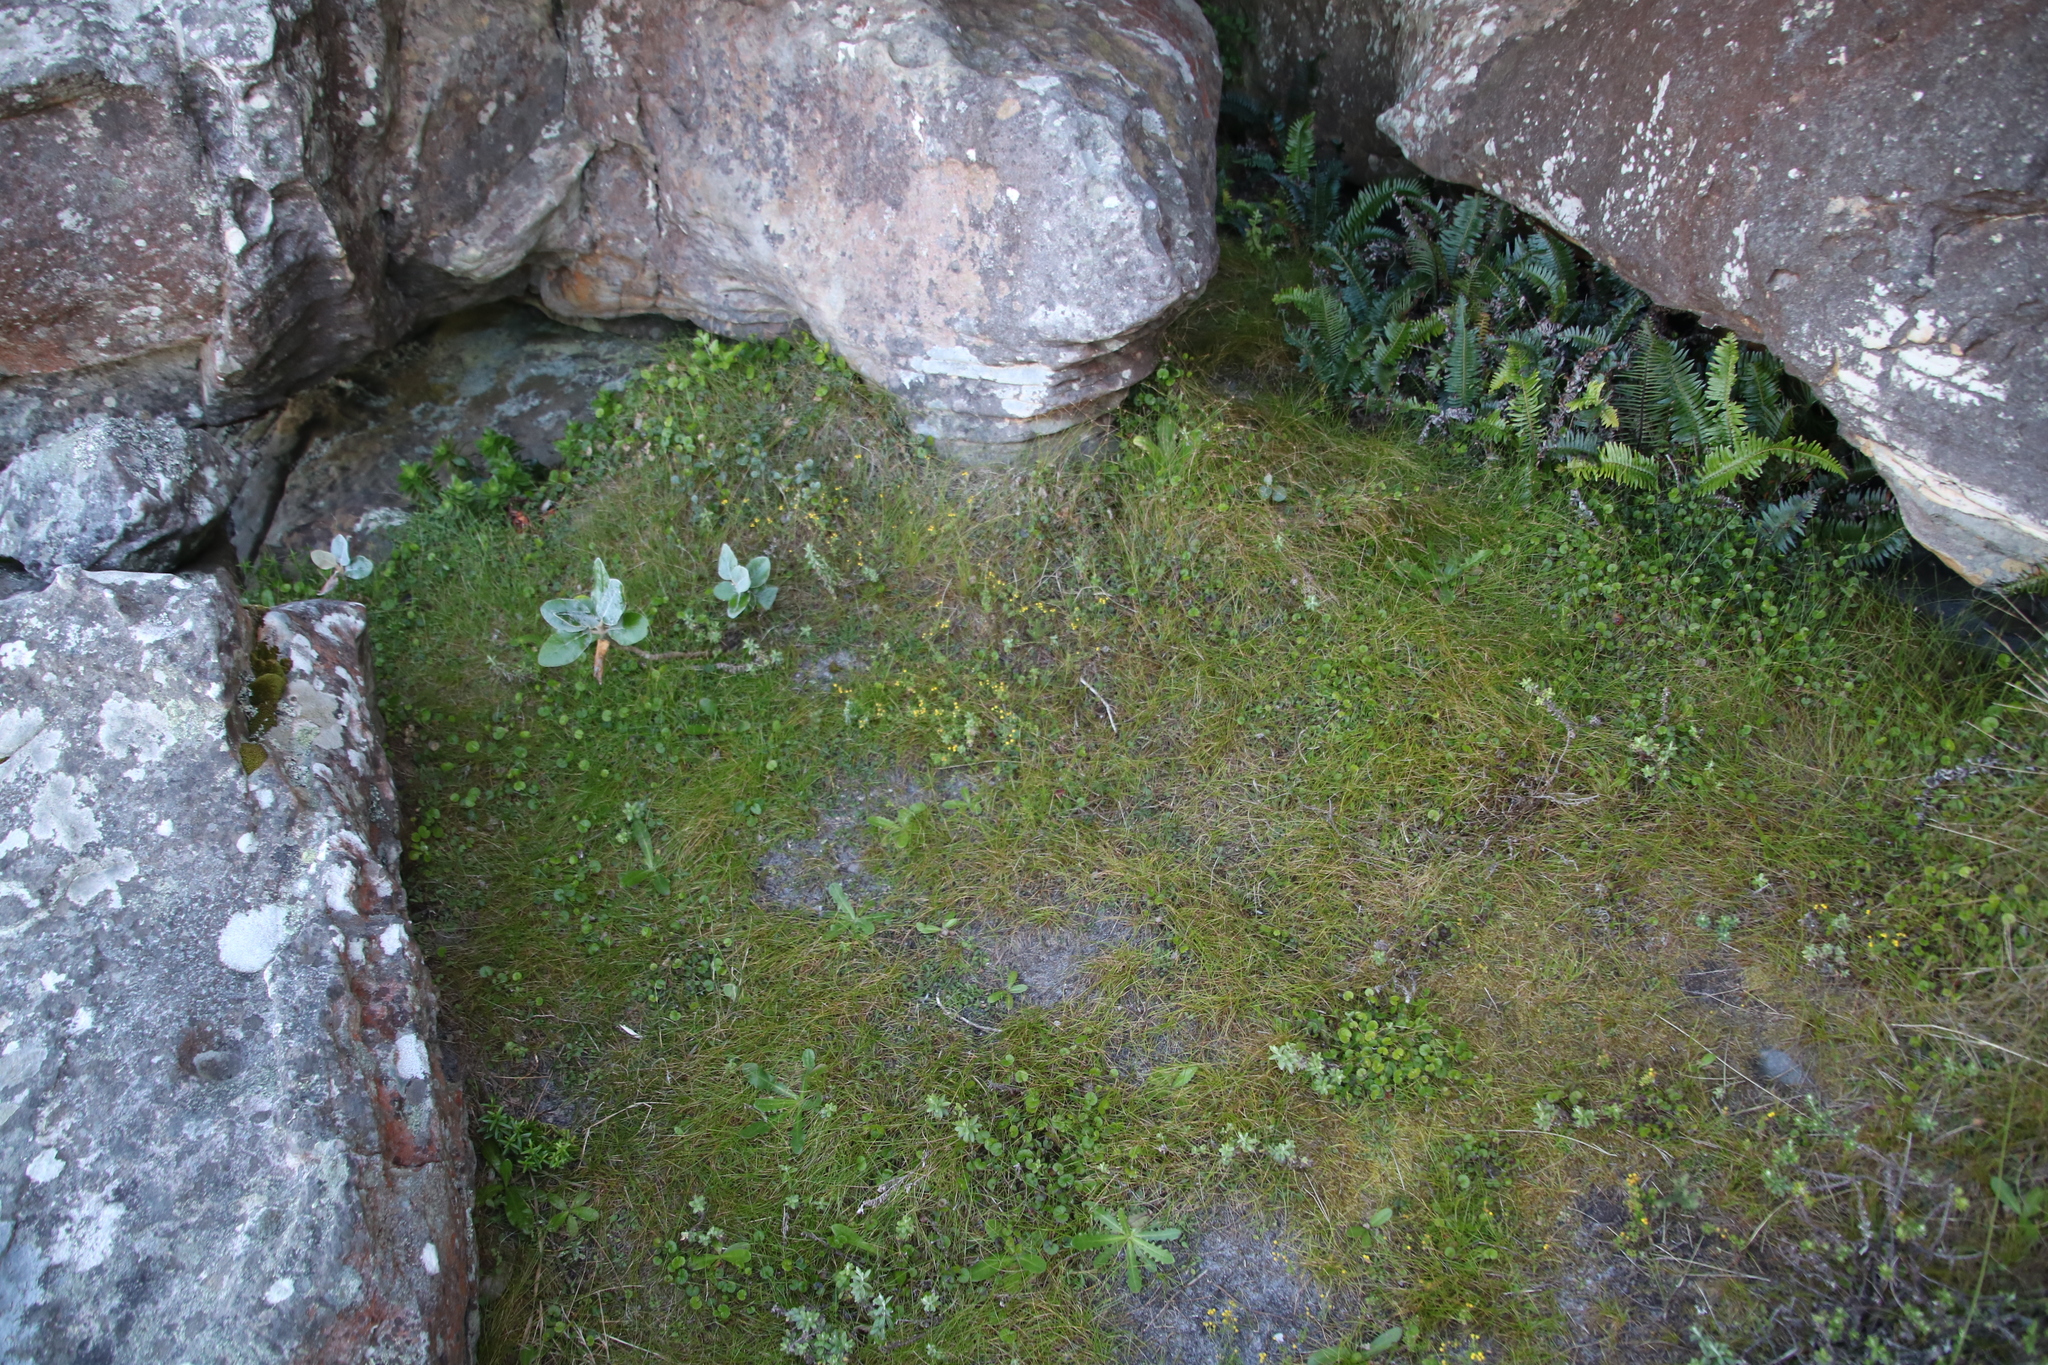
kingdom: Plantae
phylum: Tracheophyta
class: Magnoliopsida
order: Asterales
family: Asteraceae
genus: Hippia
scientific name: Hippia pilosa
